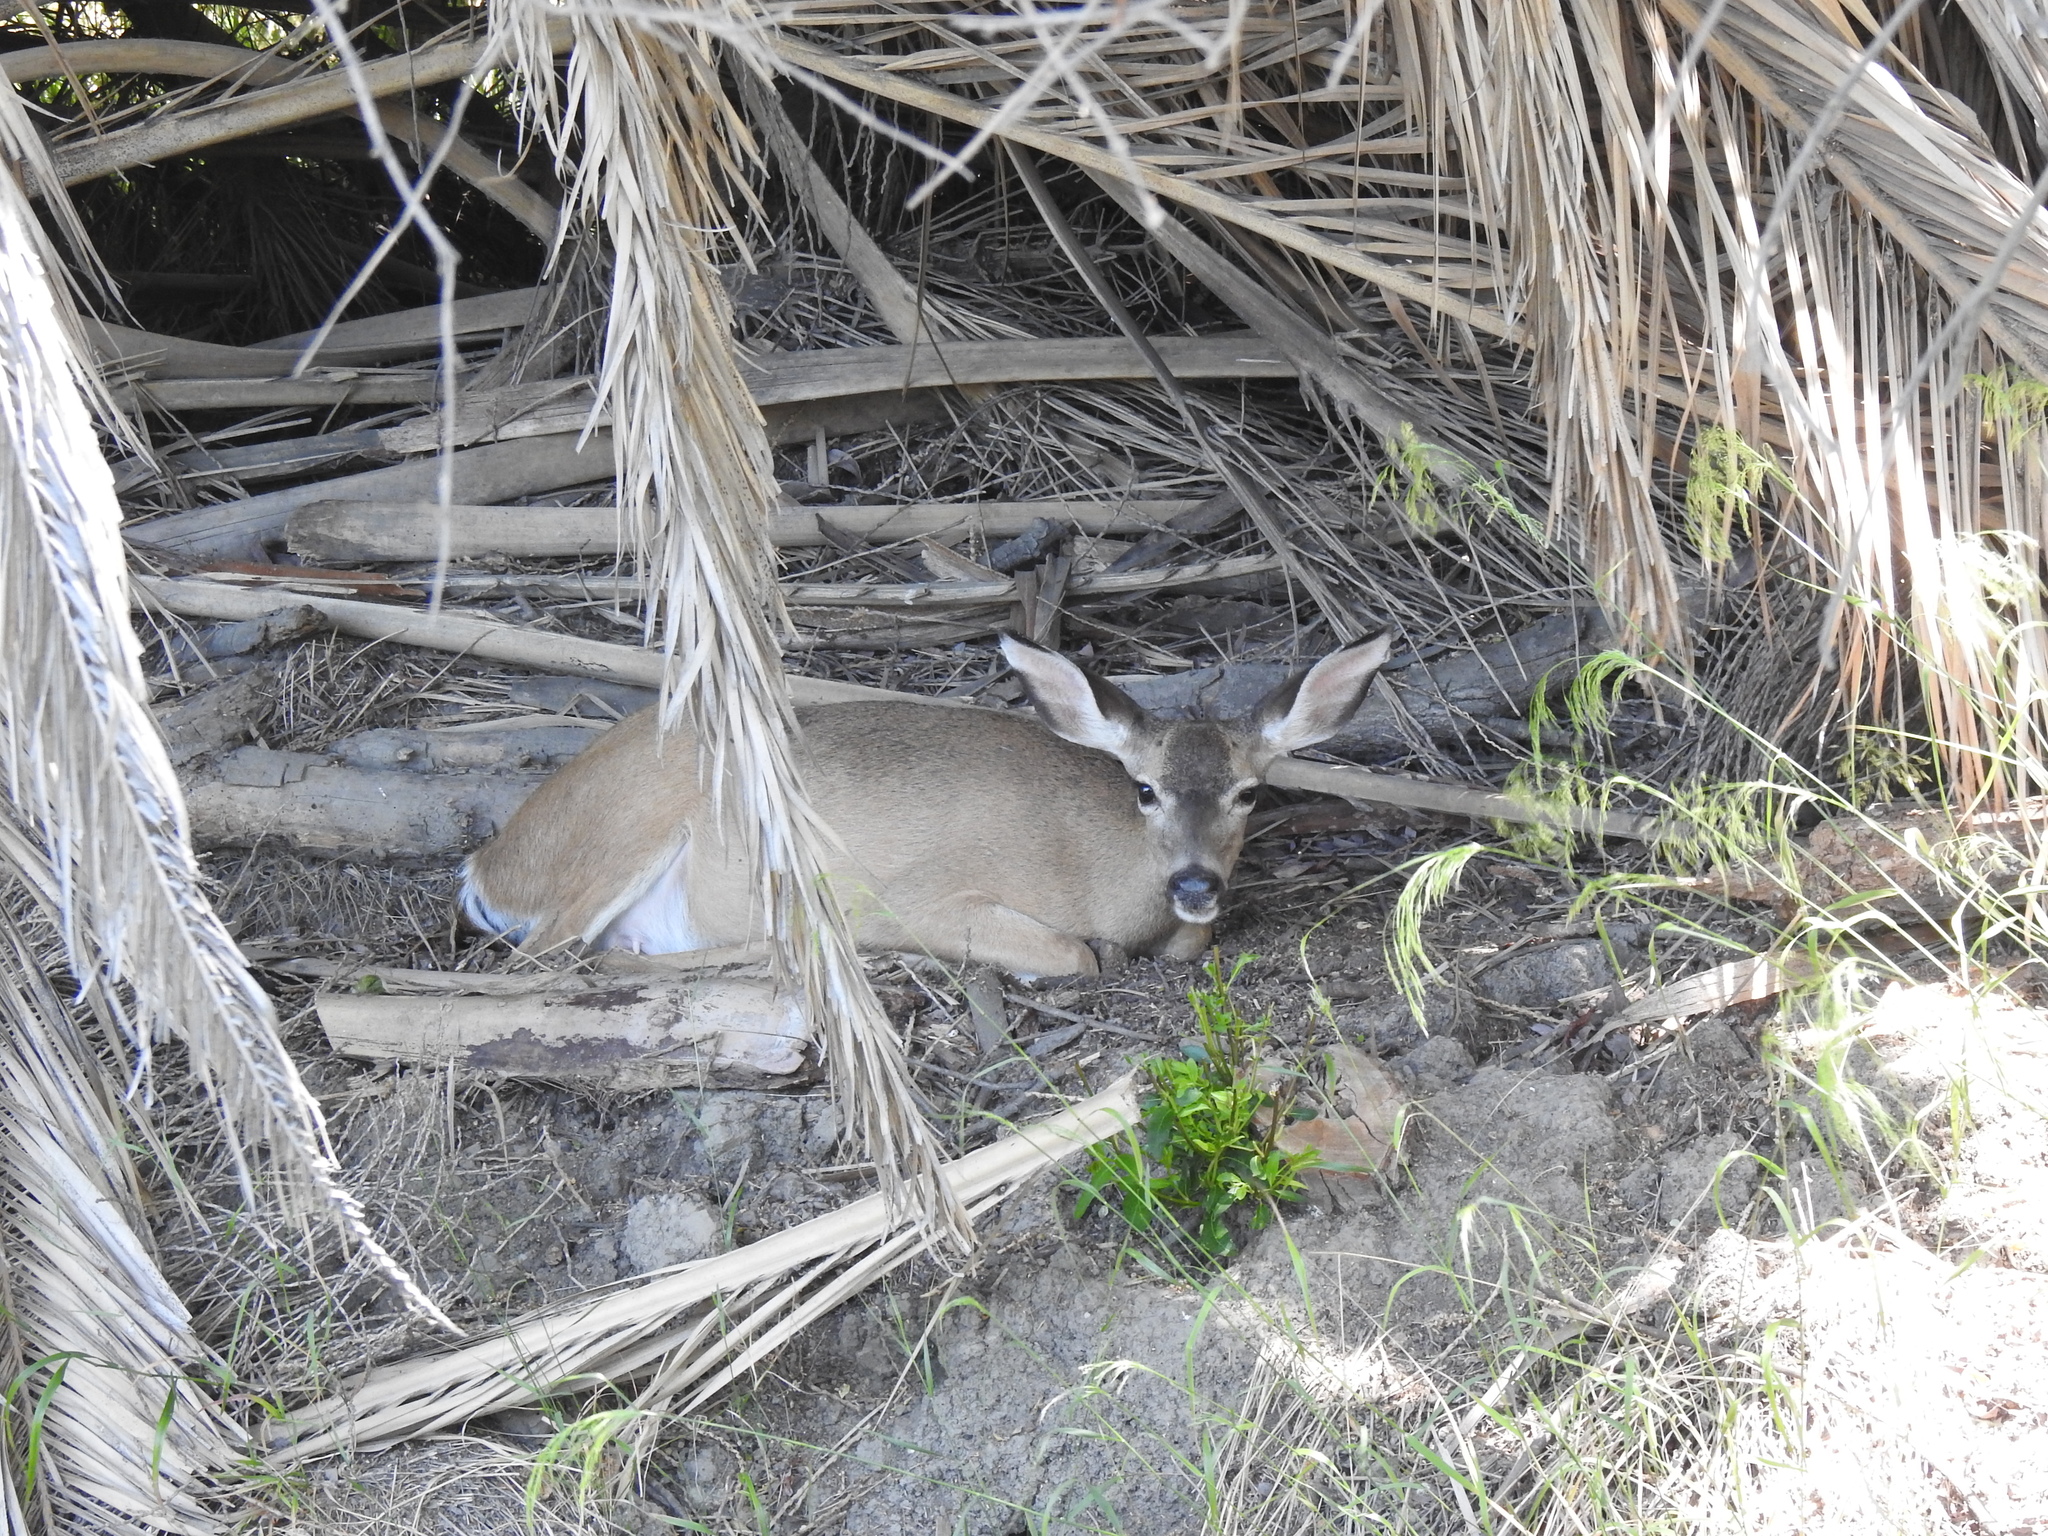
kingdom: Animalia
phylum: Chordata
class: Mammalia
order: Artiodactyla
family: Cervidae
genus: Odocoileus
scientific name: Odocoileus hemionus
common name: Mule deer
